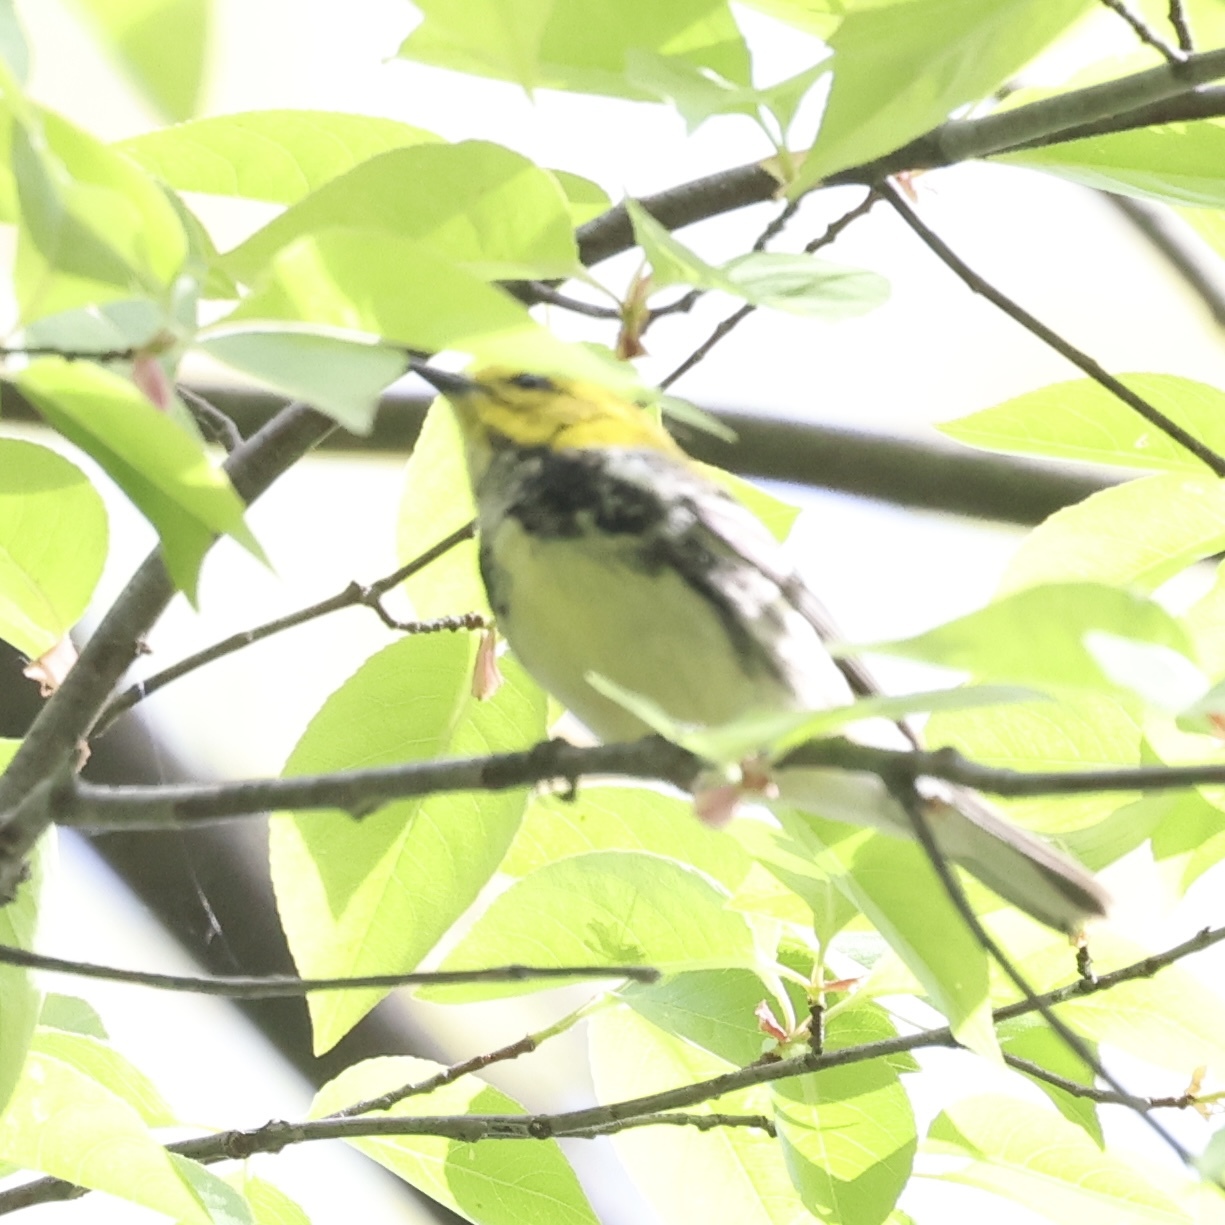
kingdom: Animalia
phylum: Chordata
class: Aves
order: Passeriformes
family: Parulidae
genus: Setophaga
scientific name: Setophaga virens
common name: Black-throated green warbler
